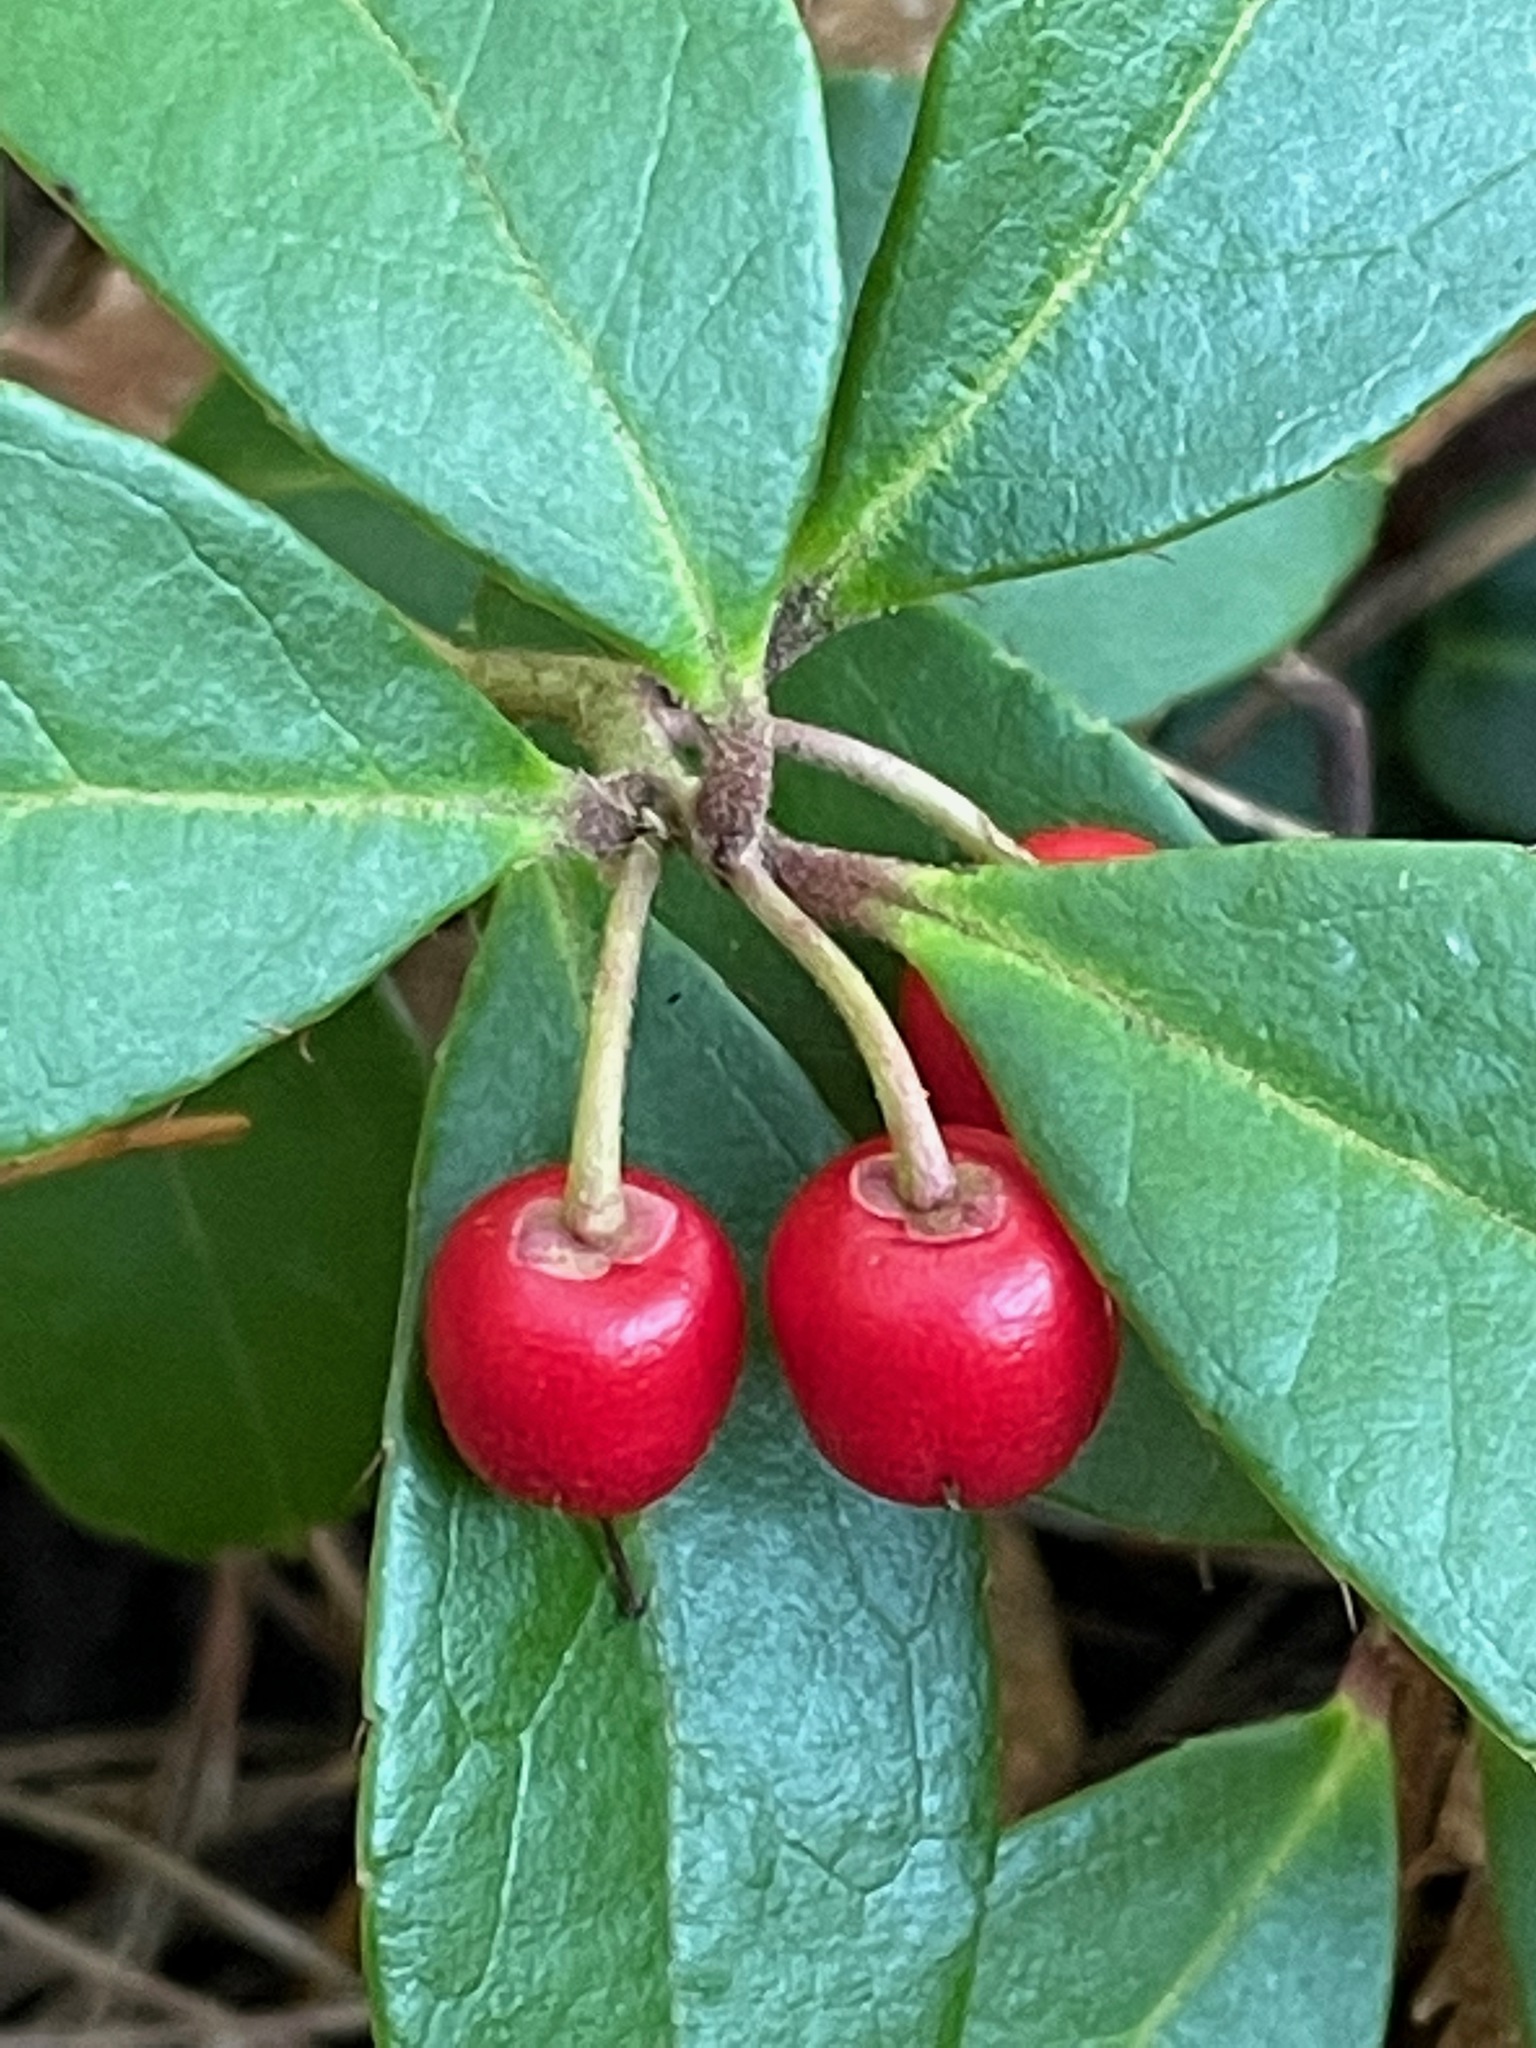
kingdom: Plantae
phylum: Tracheophyta
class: Magnoliopsida
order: Ericales
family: Ericaceae
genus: Gaultheria
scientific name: Gaultheria procumbens
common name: Checkerberry
